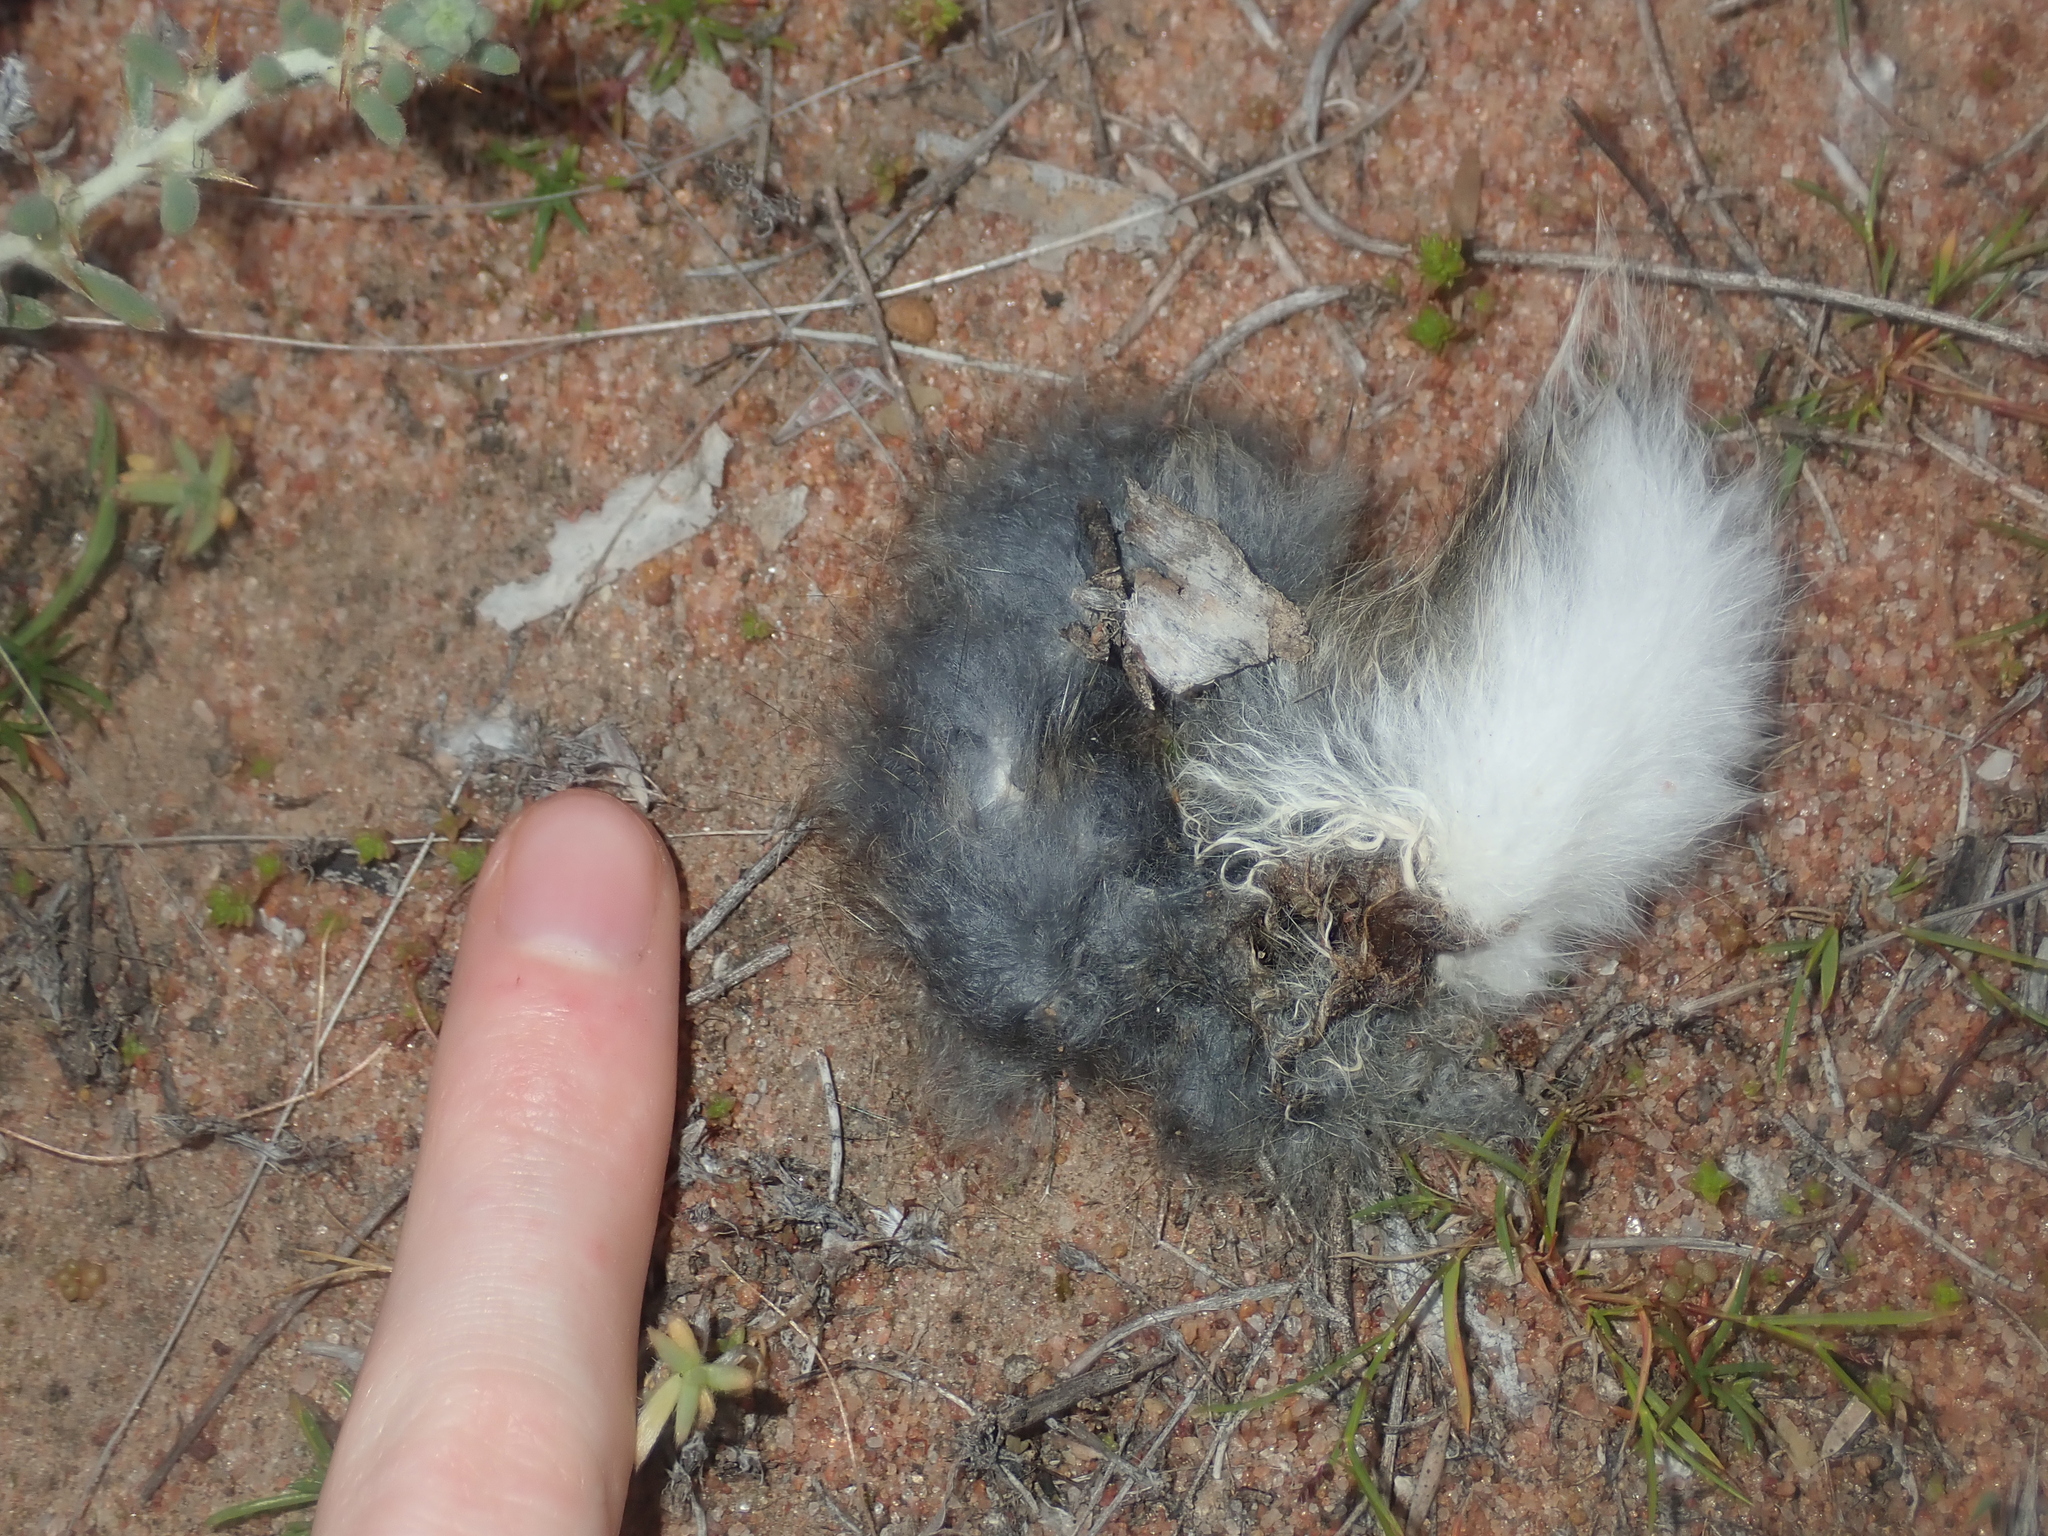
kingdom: Animalia
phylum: Chordata
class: Mammalia
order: Lagomorpha
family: Leporidae
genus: Oryctolagus
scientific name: Oryctolagus cuniculus
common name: European rabbit
